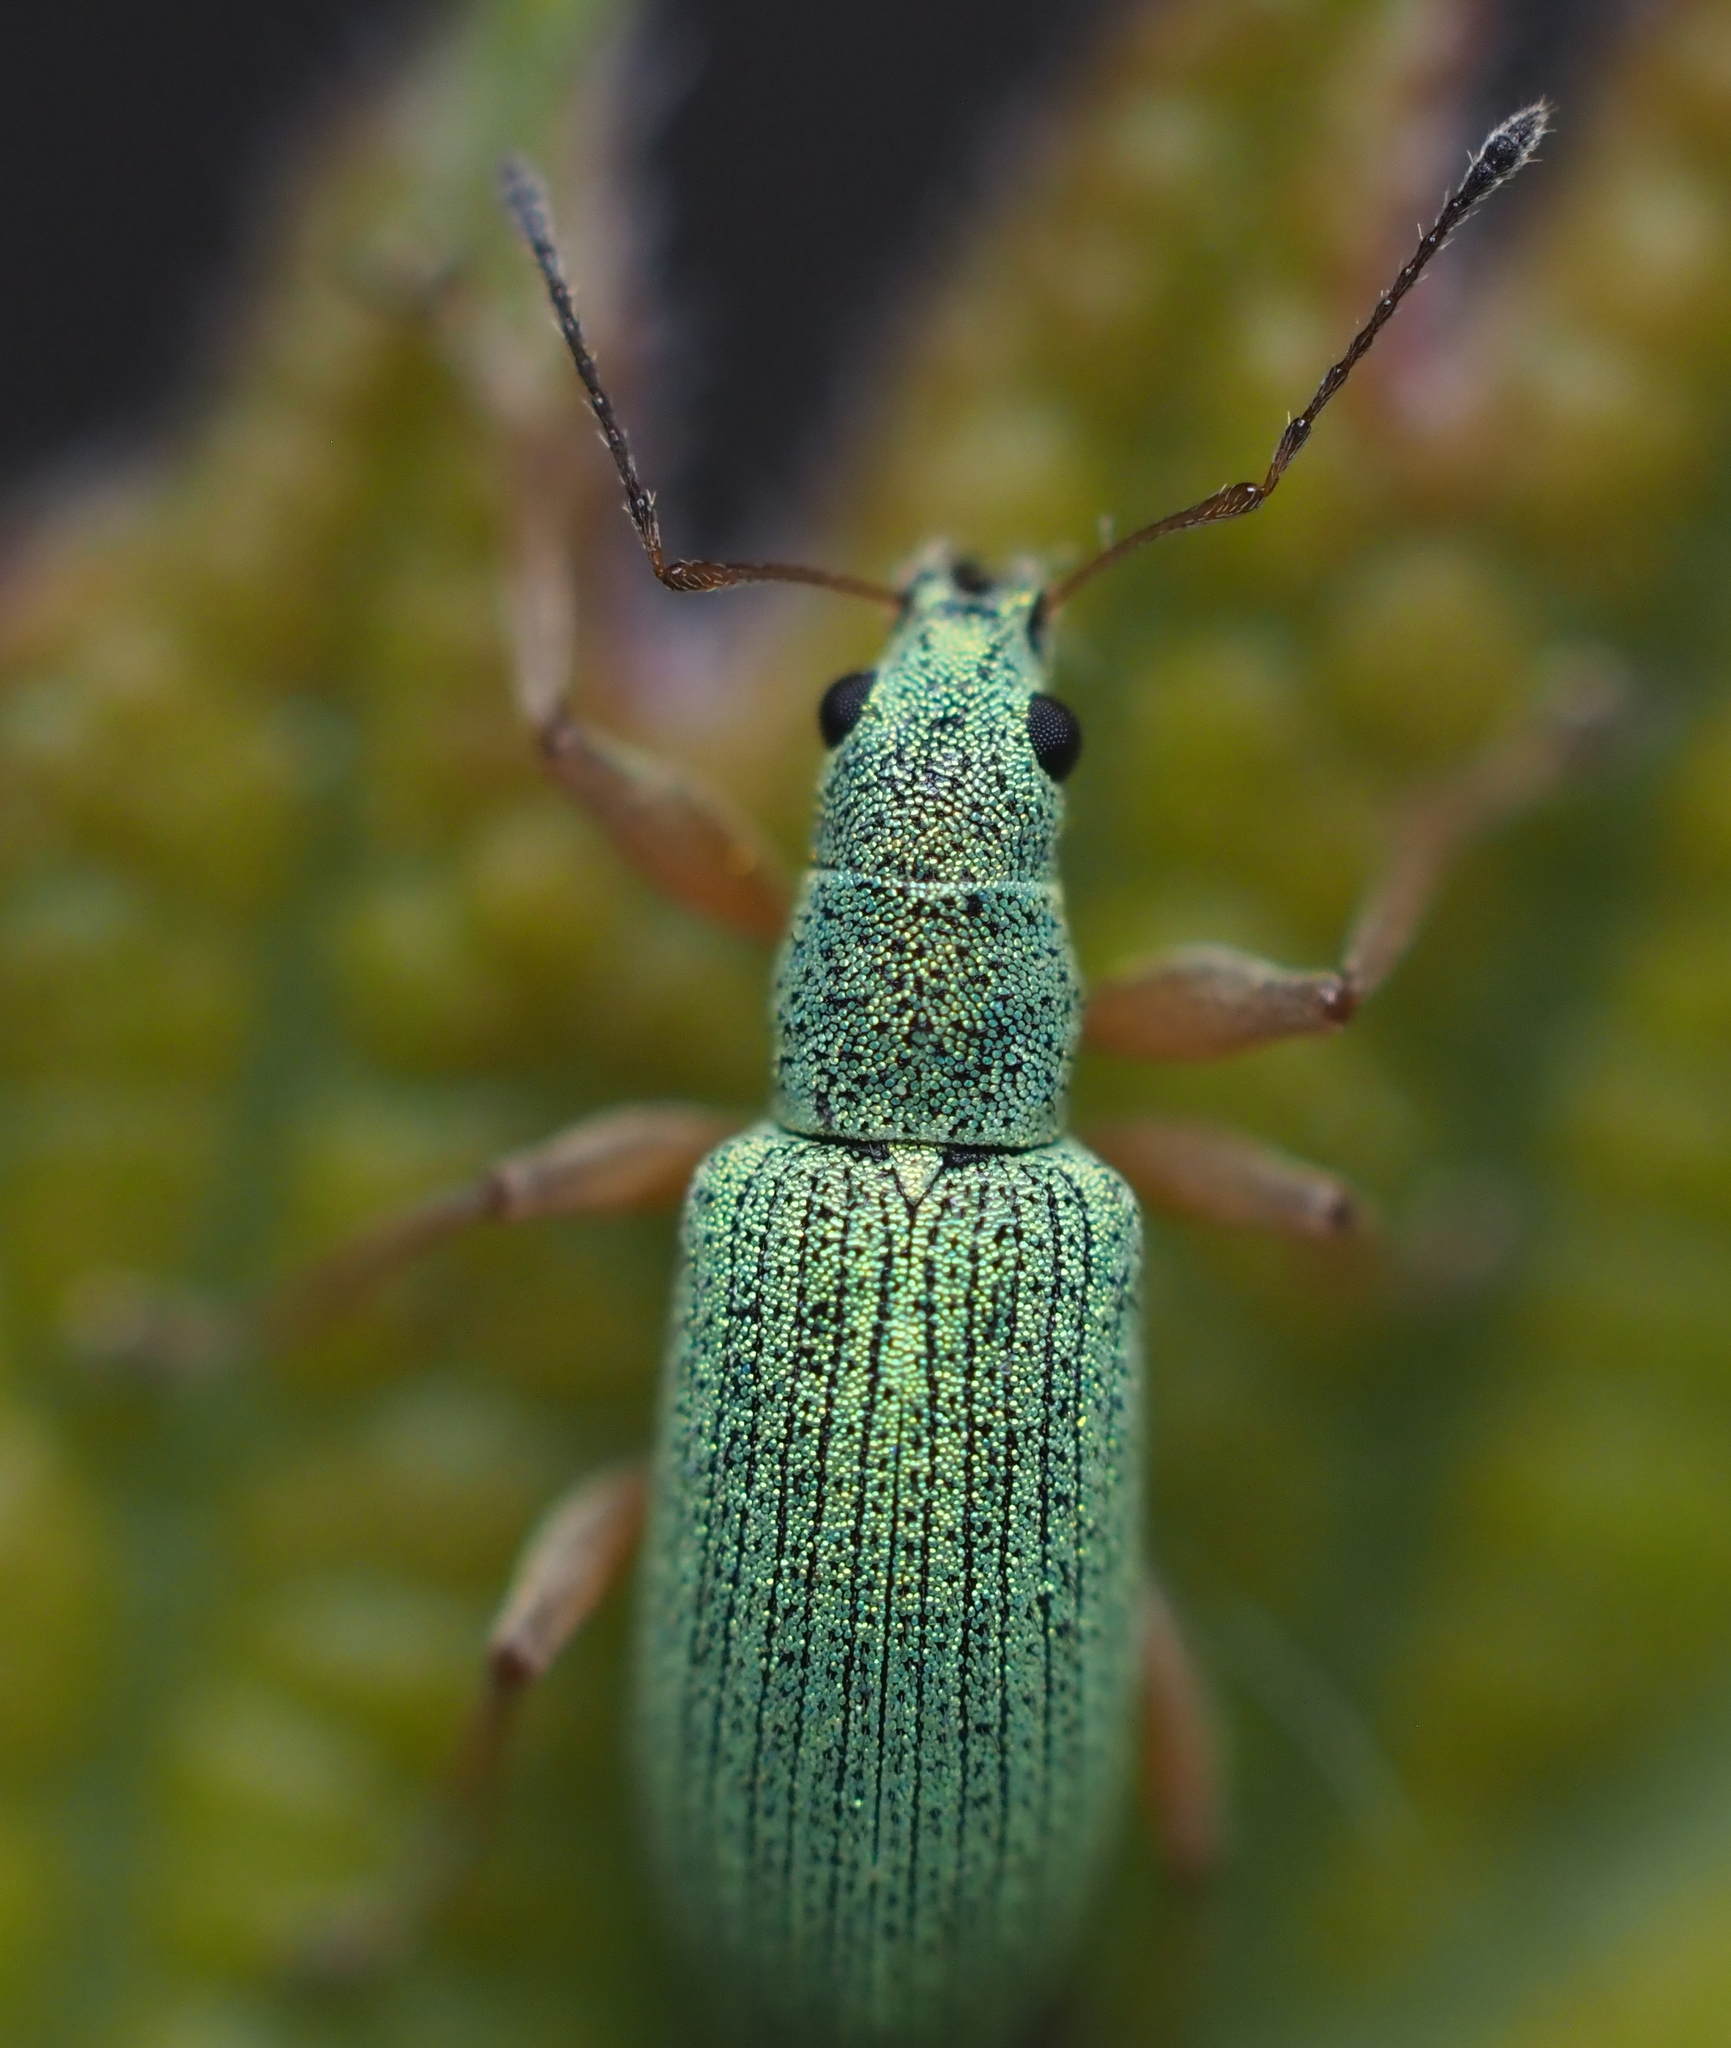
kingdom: Animalia
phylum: Arthropoda
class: Insecta
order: Coleoptera
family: Curculionidae
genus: Polydrusus
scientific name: Polydrusus impressifrons
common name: Weevil
